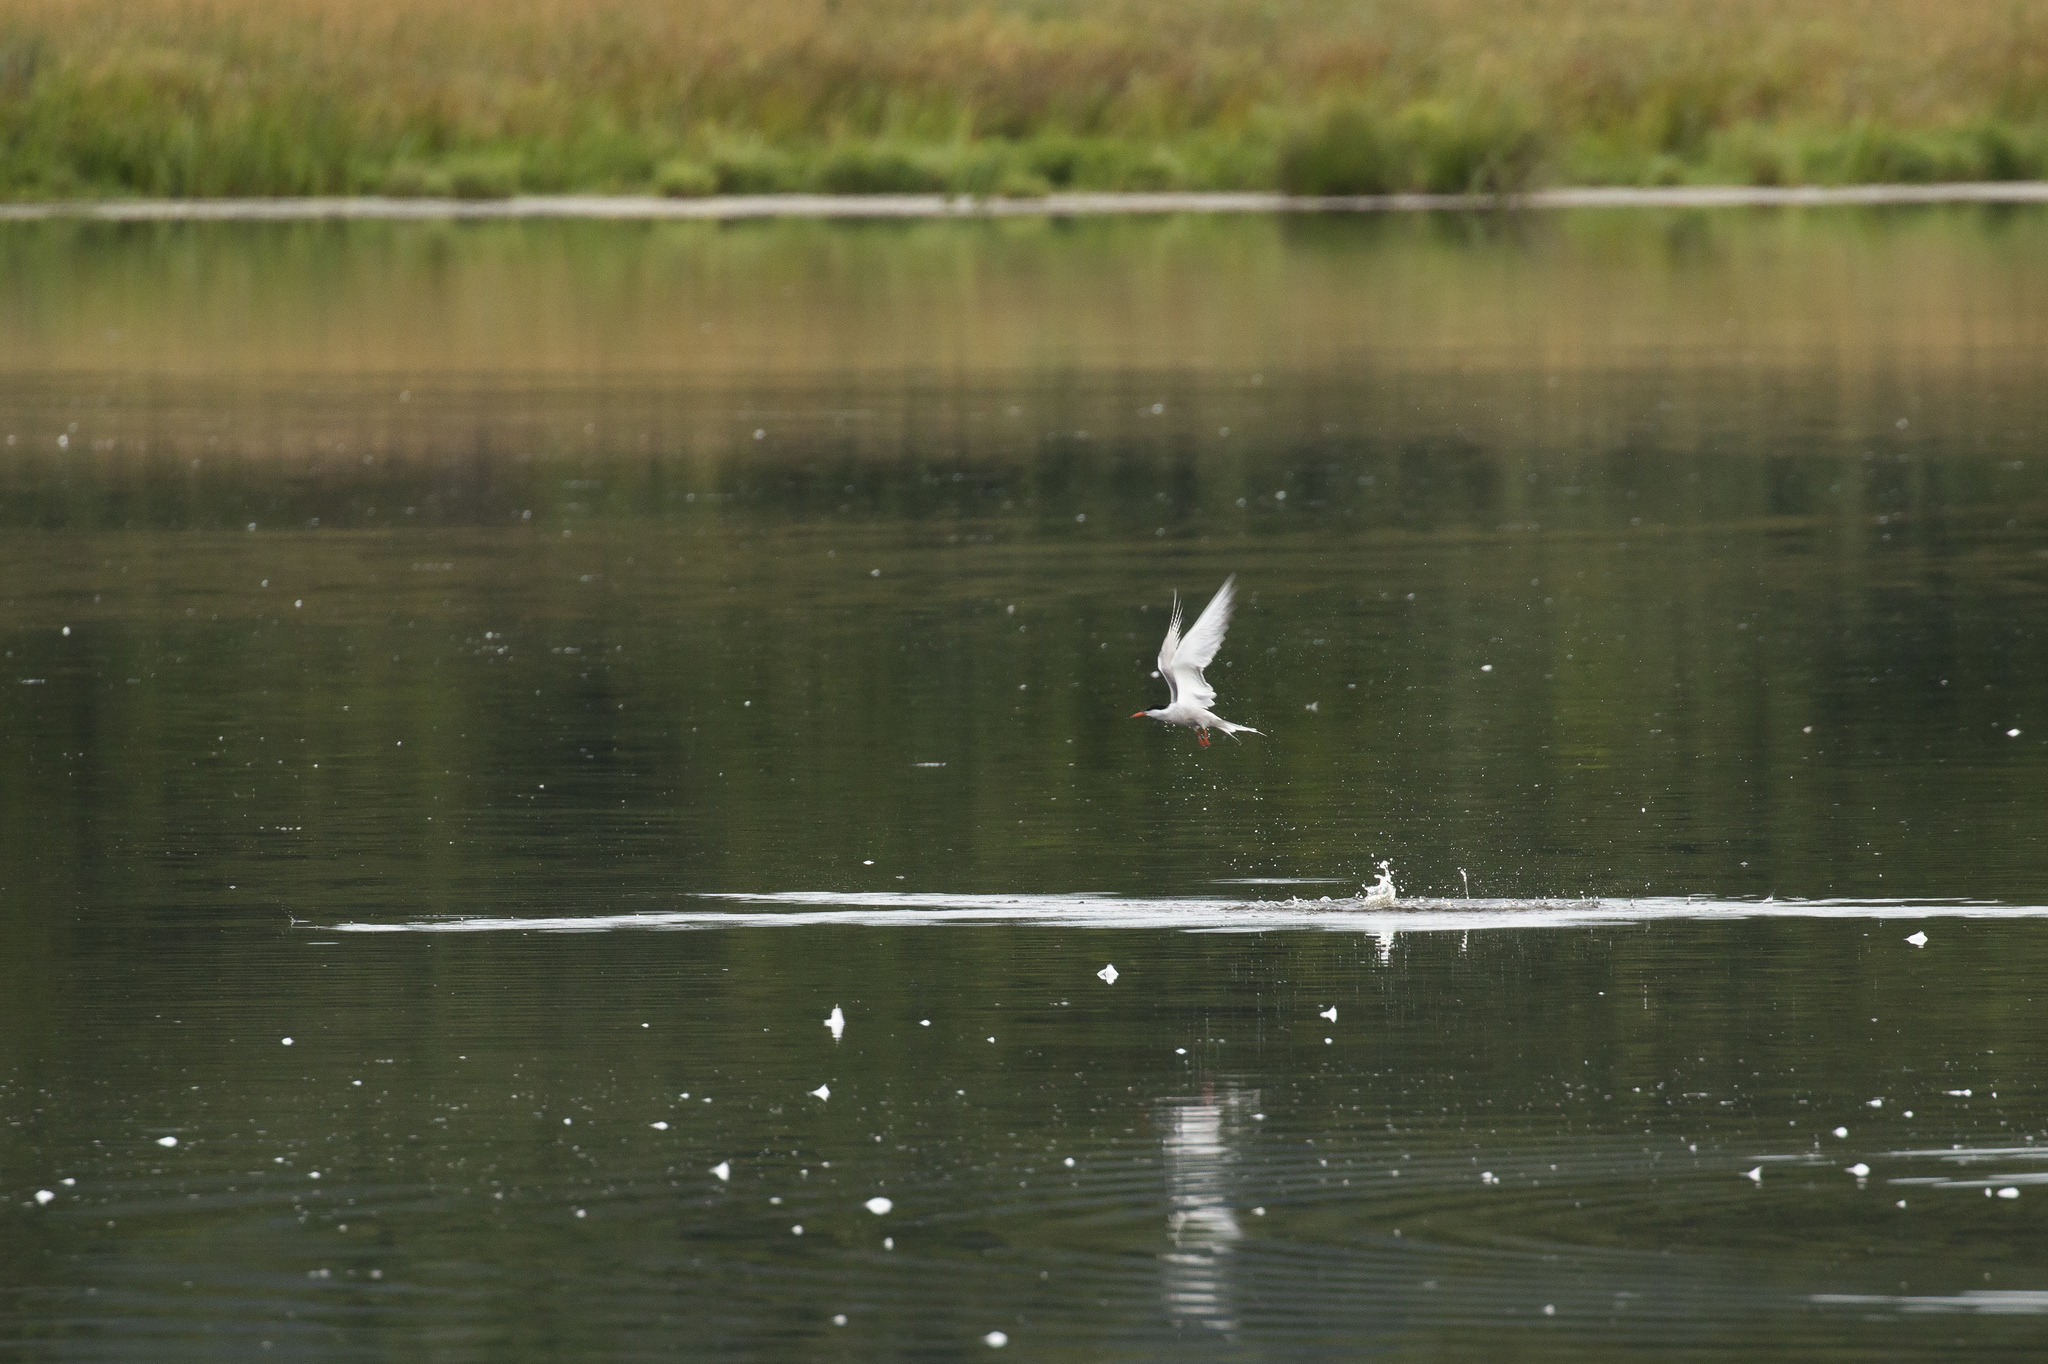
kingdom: Animalia
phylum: Chordata
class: Aves
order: Charadriiformes
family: Laridae
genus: Sterna
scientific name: Sterna hirundo
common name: Common tern
